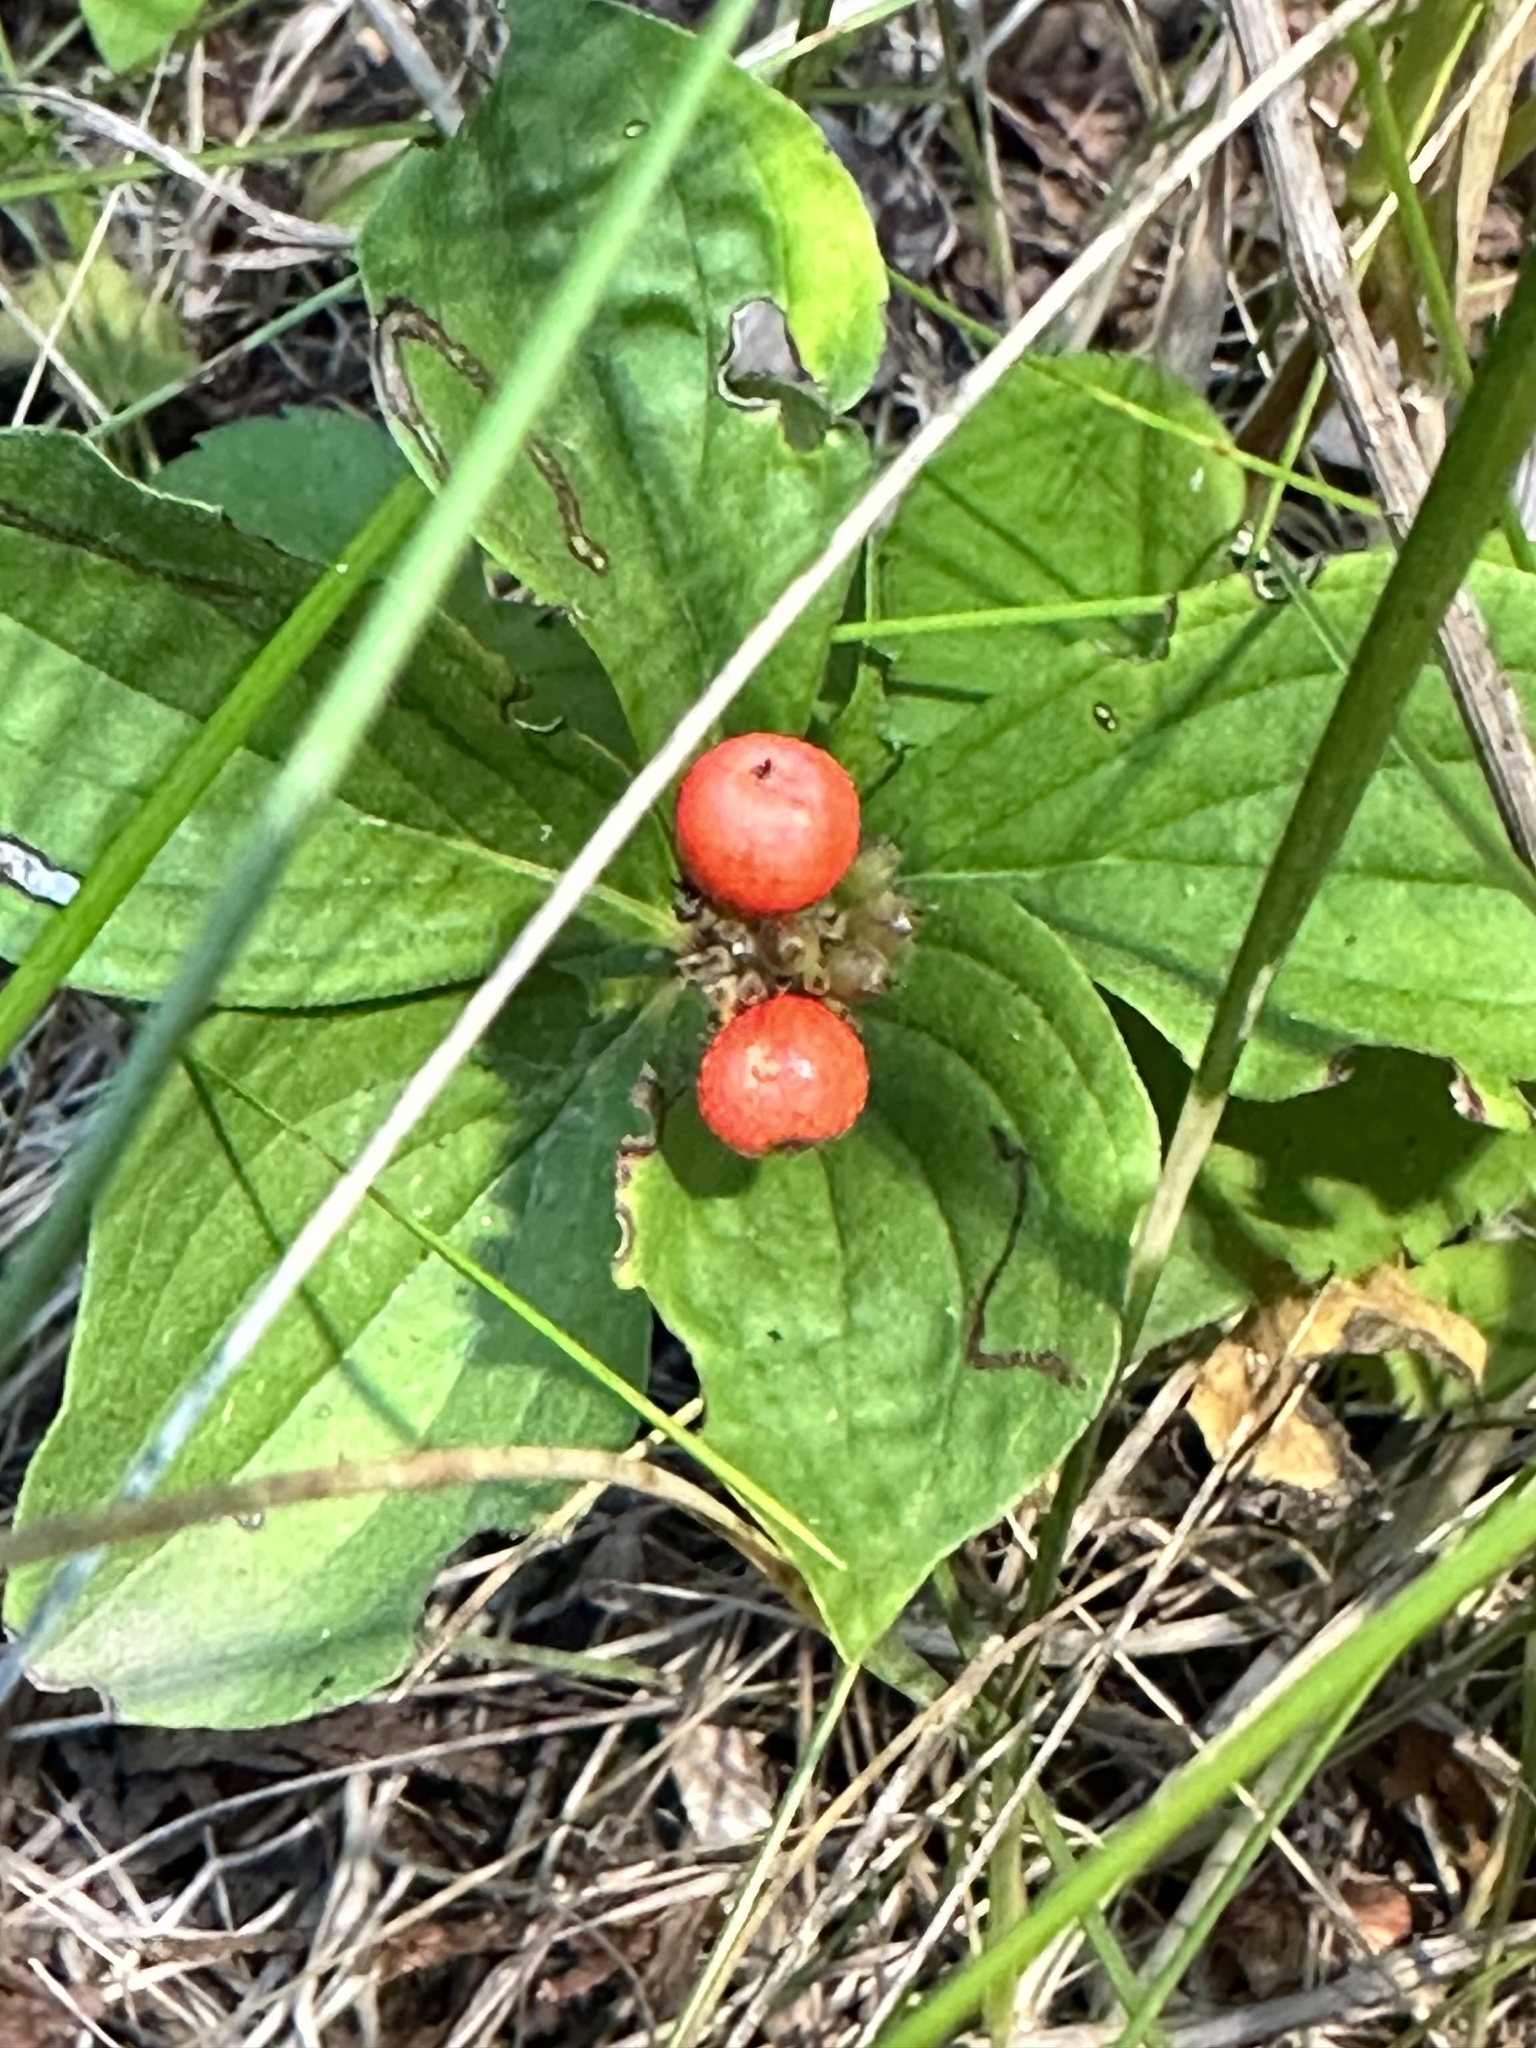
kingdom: Plantae
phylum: Tracheophyta
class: Magnoliopsida
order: Cornales
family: Cornaceae
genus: Cornus
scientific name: Cornus canadensis
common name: Creeping dogwood
